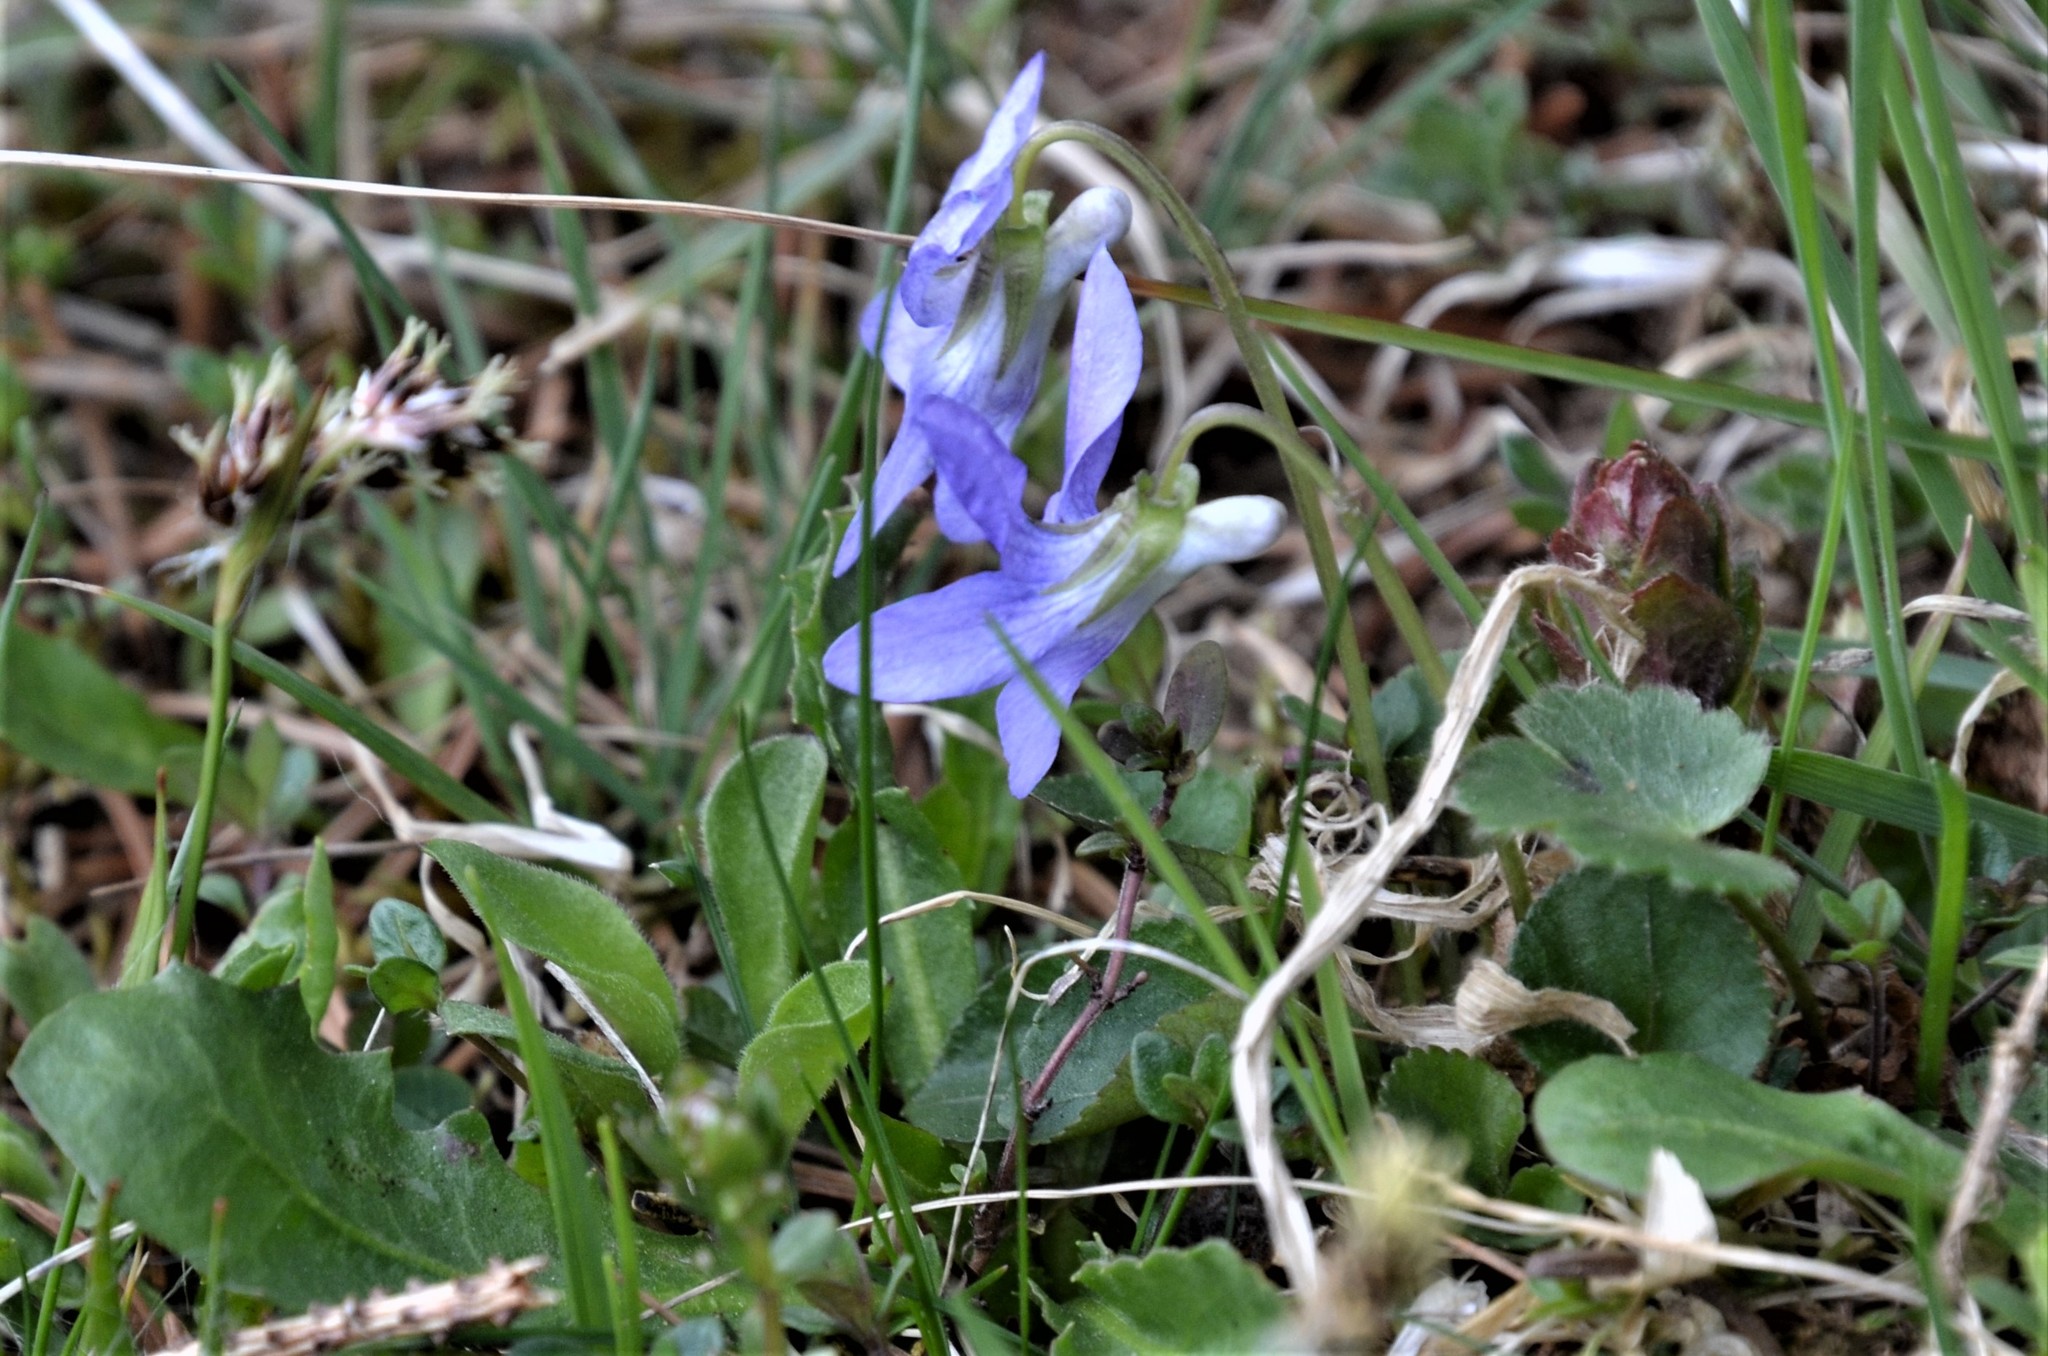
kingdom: Plantae
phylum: Tracheophyta
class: Magnoliopsida
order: Malpighiales
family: Violaceae
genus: Viola
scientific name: Viola riviniana
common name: Common dog-violet
